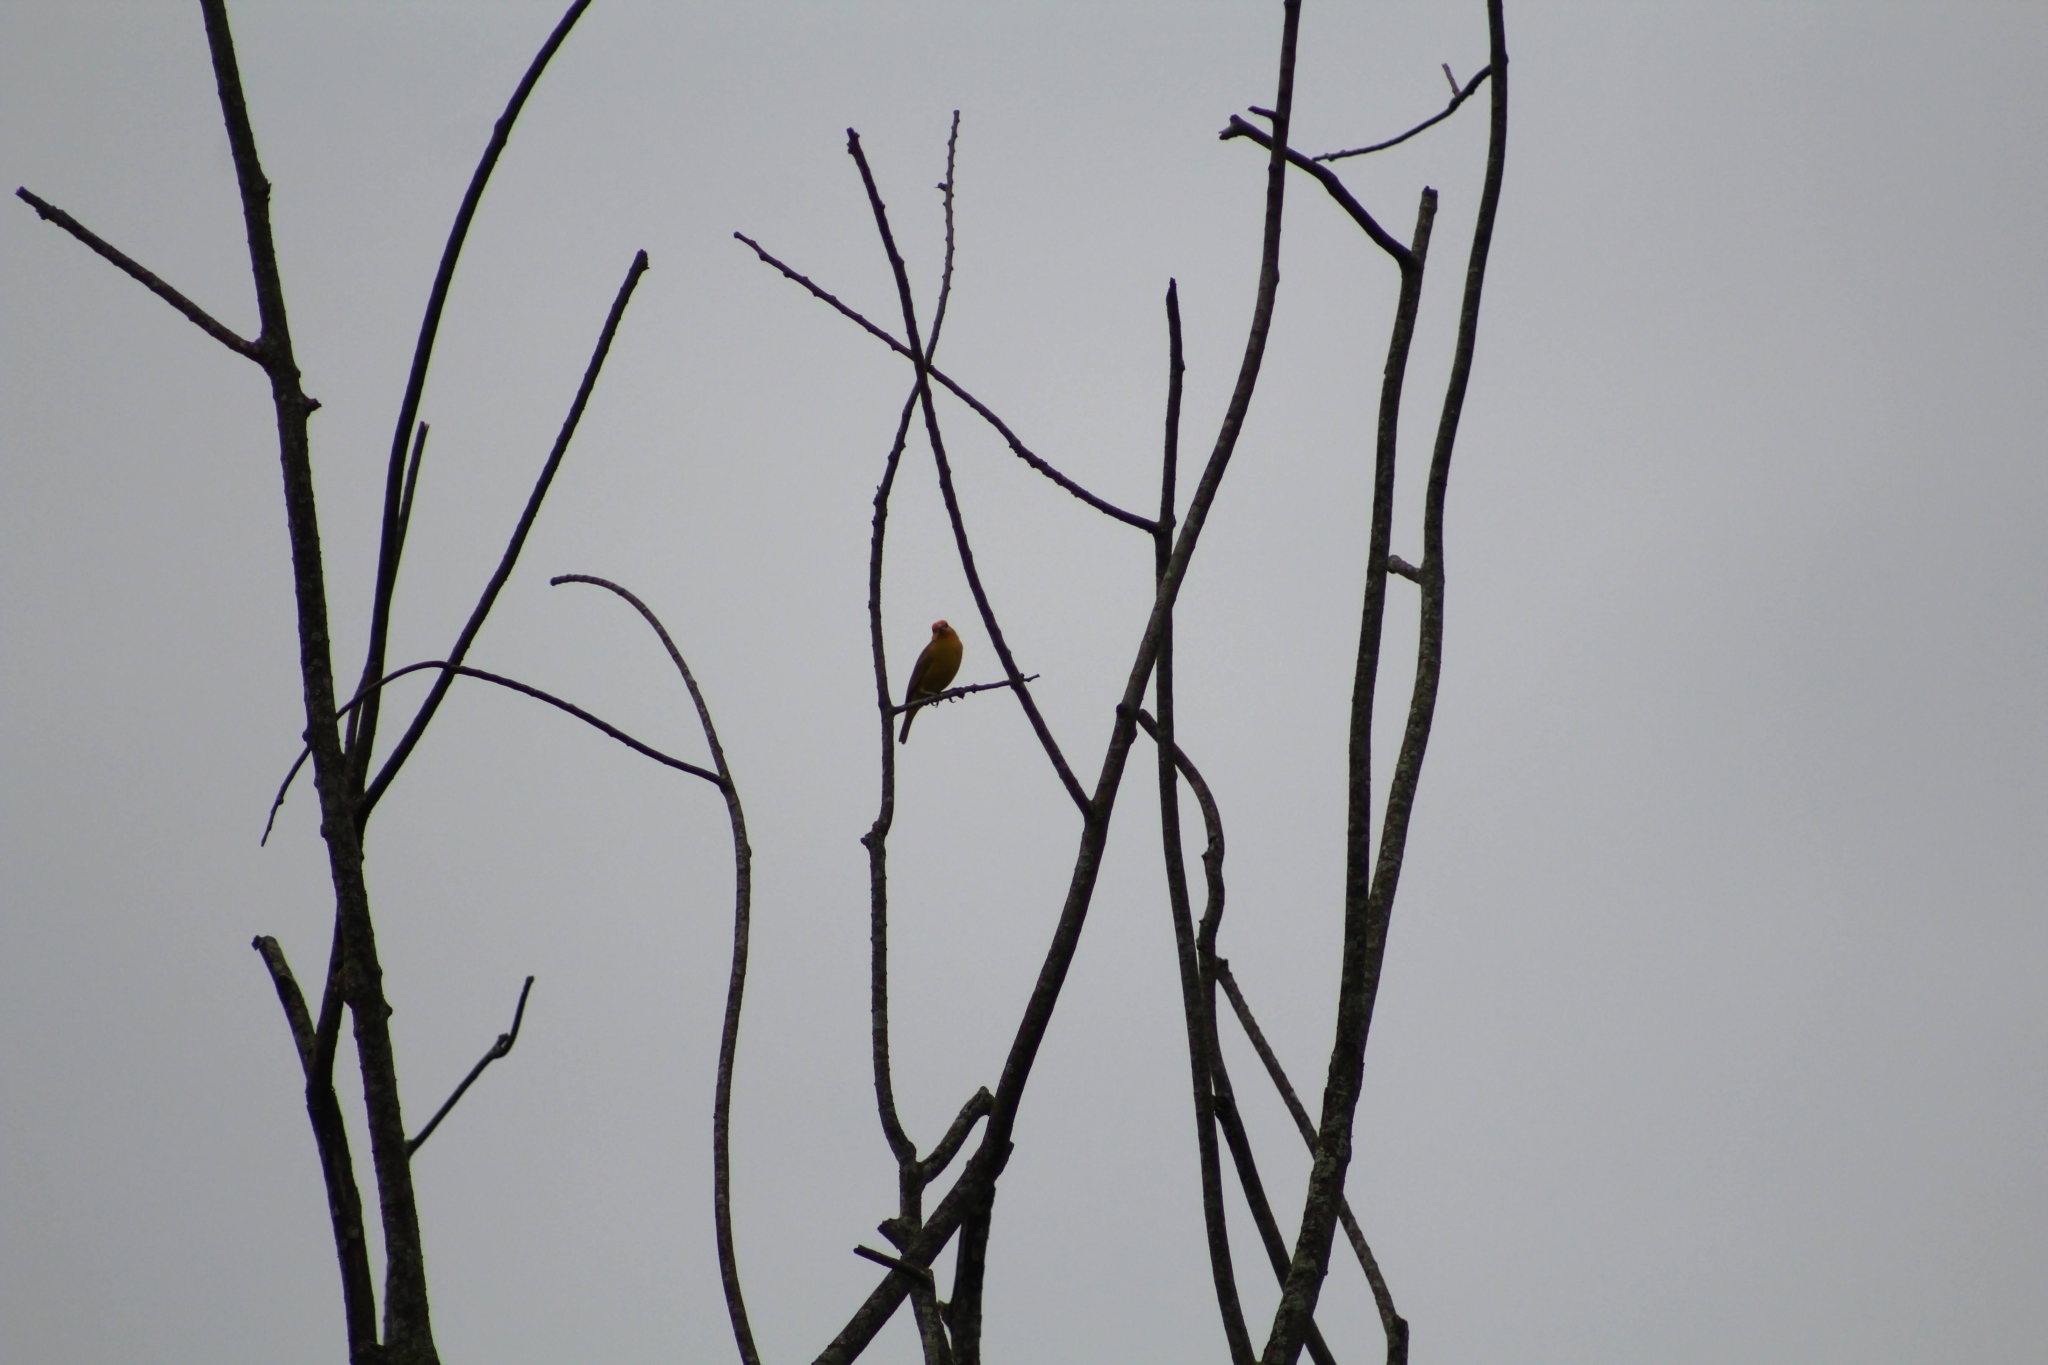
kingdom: Animalia
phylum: Chordata
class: Aves
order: Passeriformes
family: Thraupidae
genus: Sicalis
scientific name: Sicalis flaveola
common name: Saffron finch
